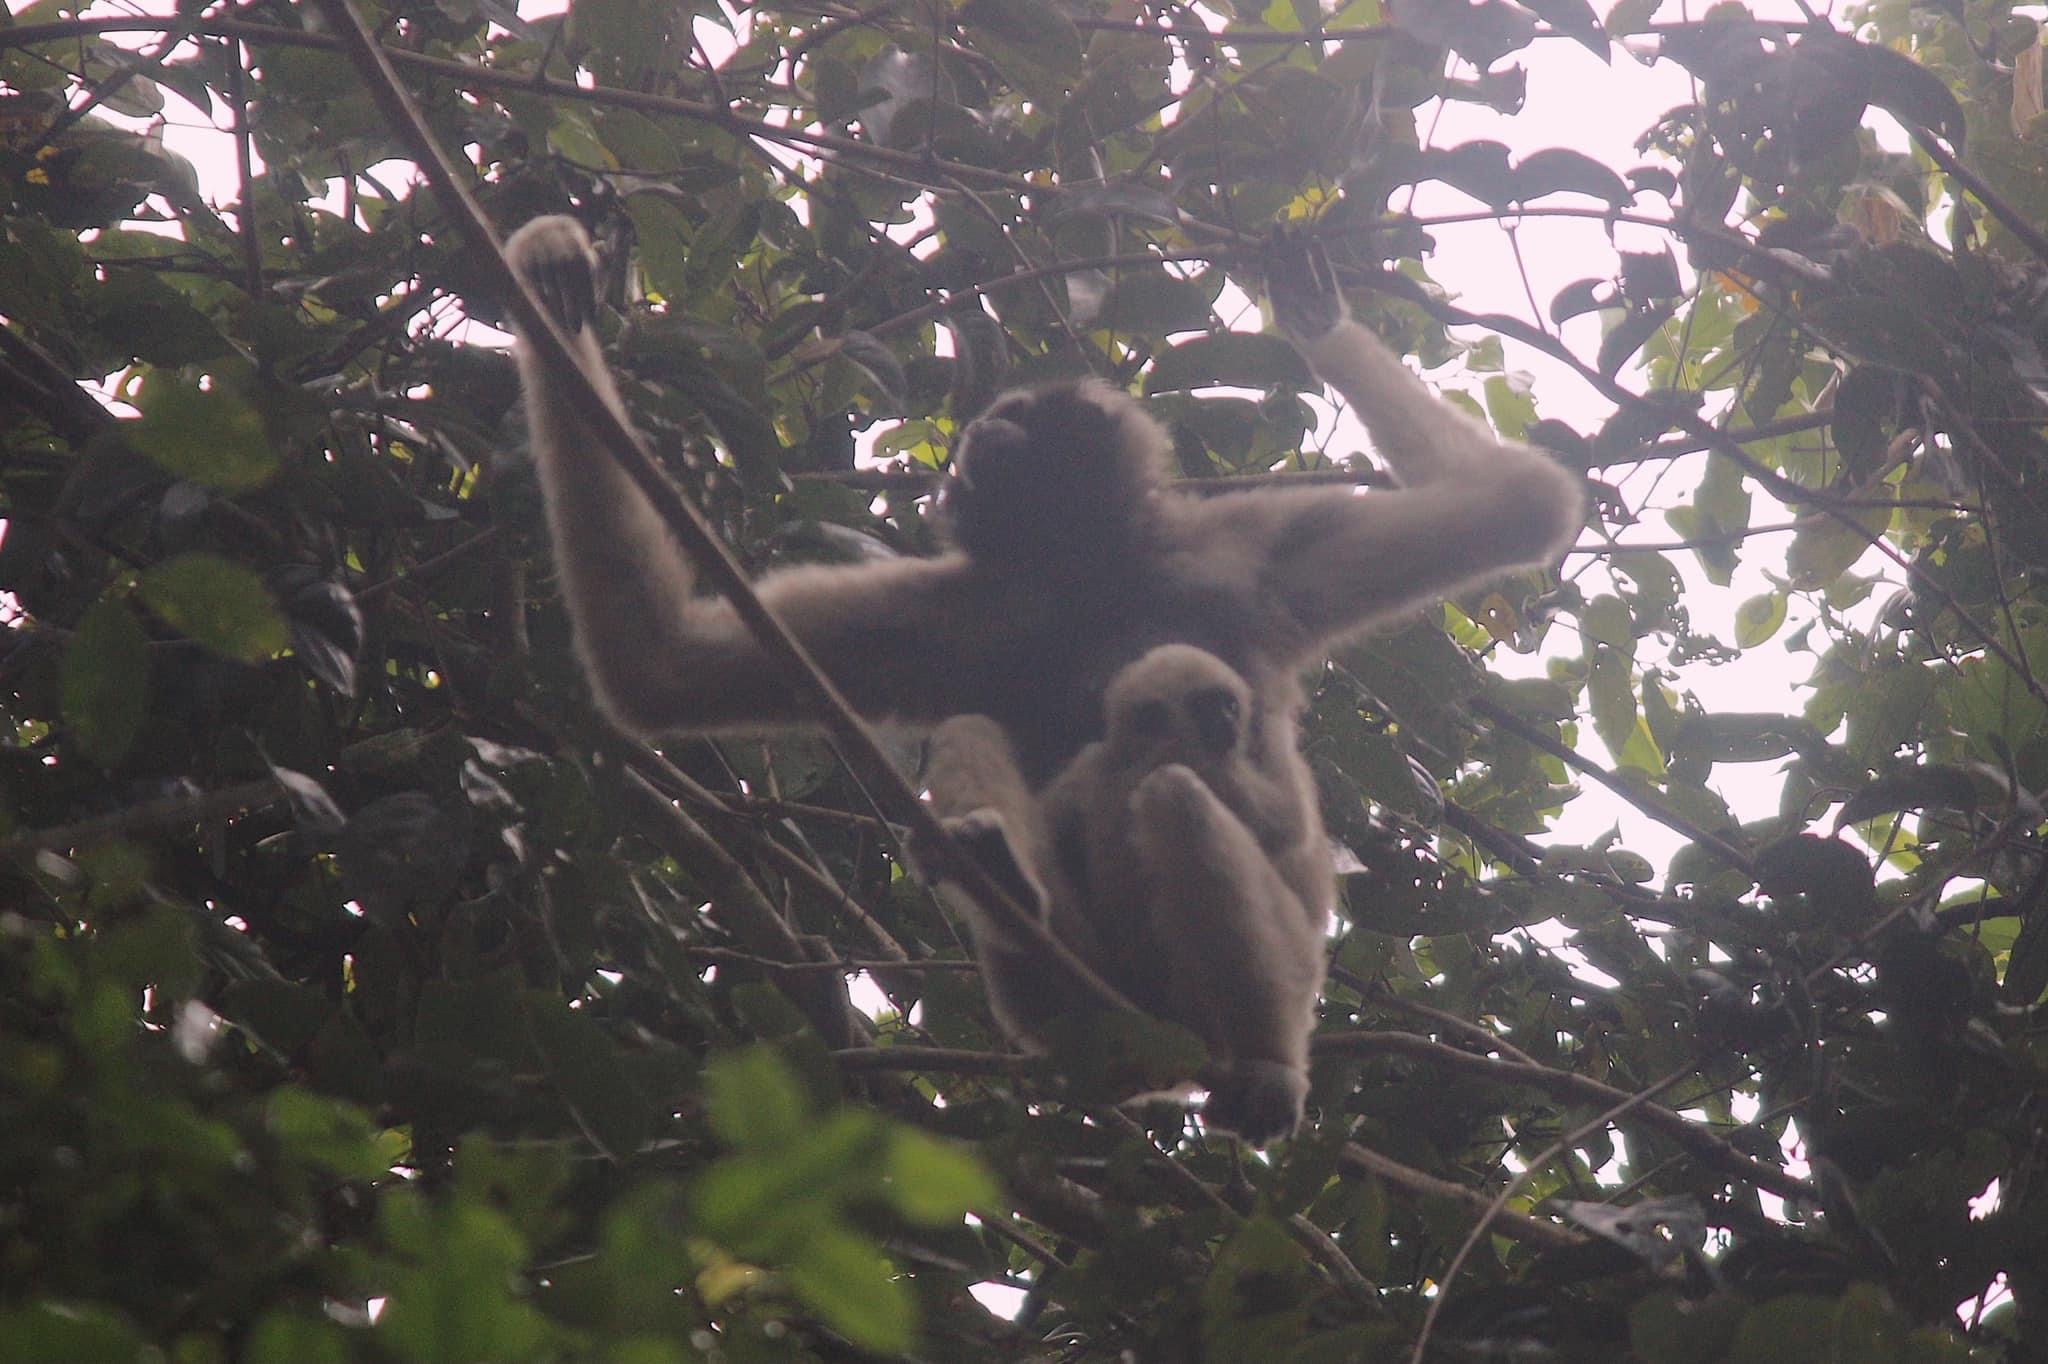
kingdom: Animalia
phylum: Chordata
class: Mammalia
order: Primates
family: Hylobatidae
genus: Hylobates
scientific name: Hylobates pileatus
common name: Pileated gibbon
